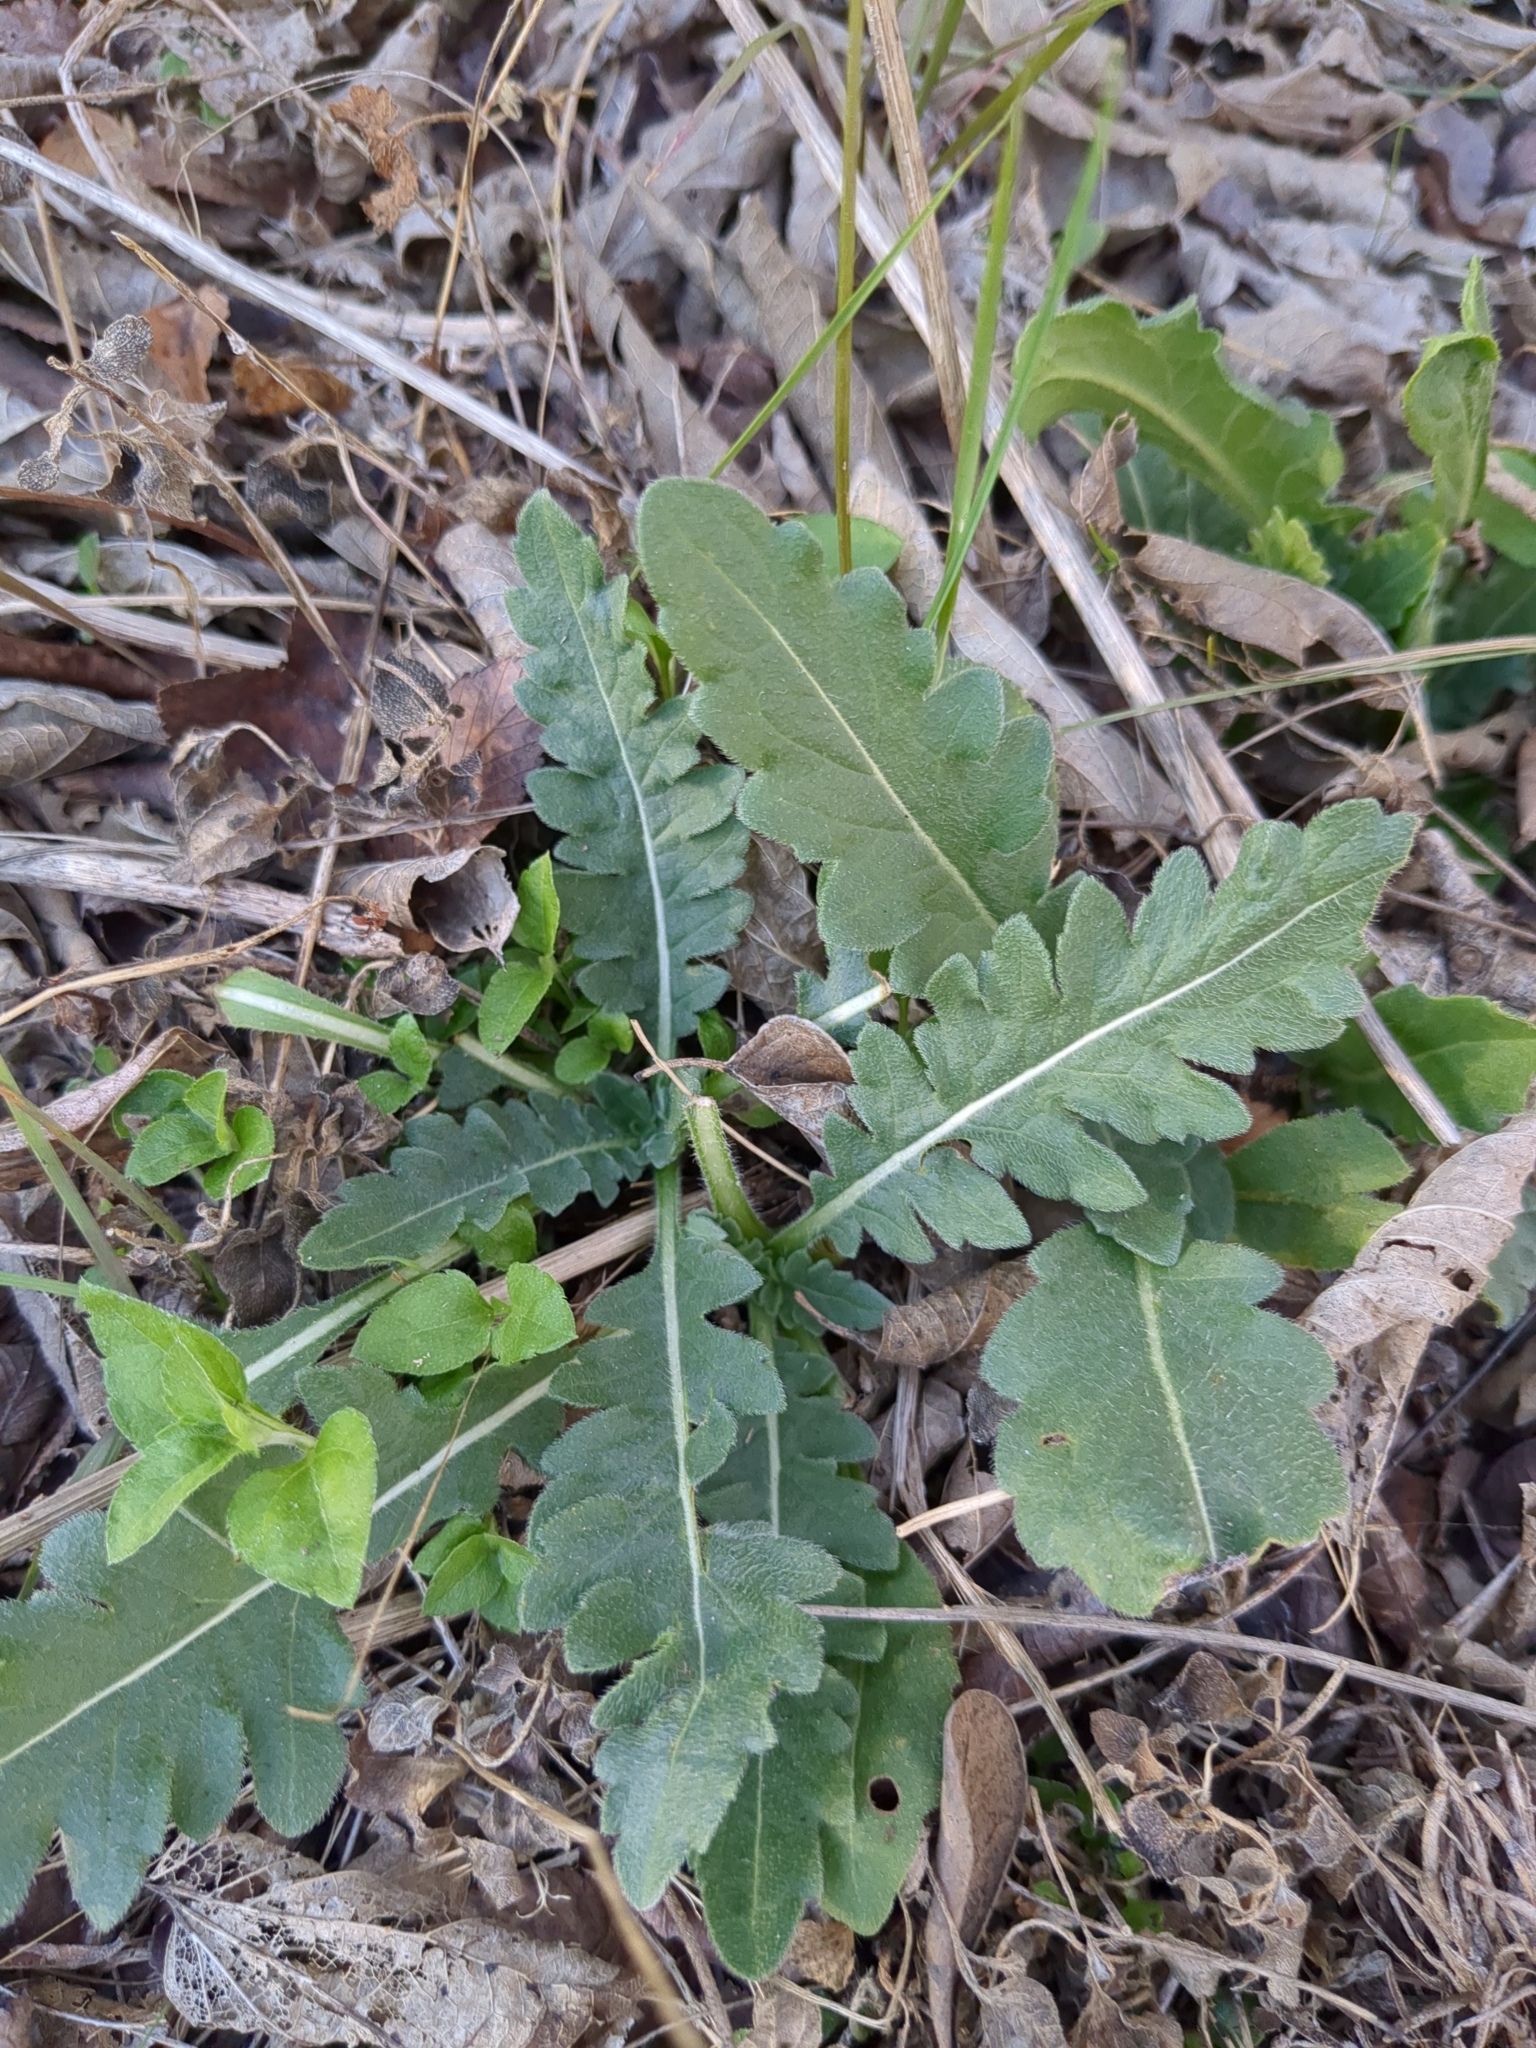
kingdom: Plantae
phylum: Tracheophyta
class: Magnoliopsida
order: Asterales
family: Asteraceae
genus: Engelmannia
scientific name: Engelmannia peristenia
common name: Engelmann's daisy
